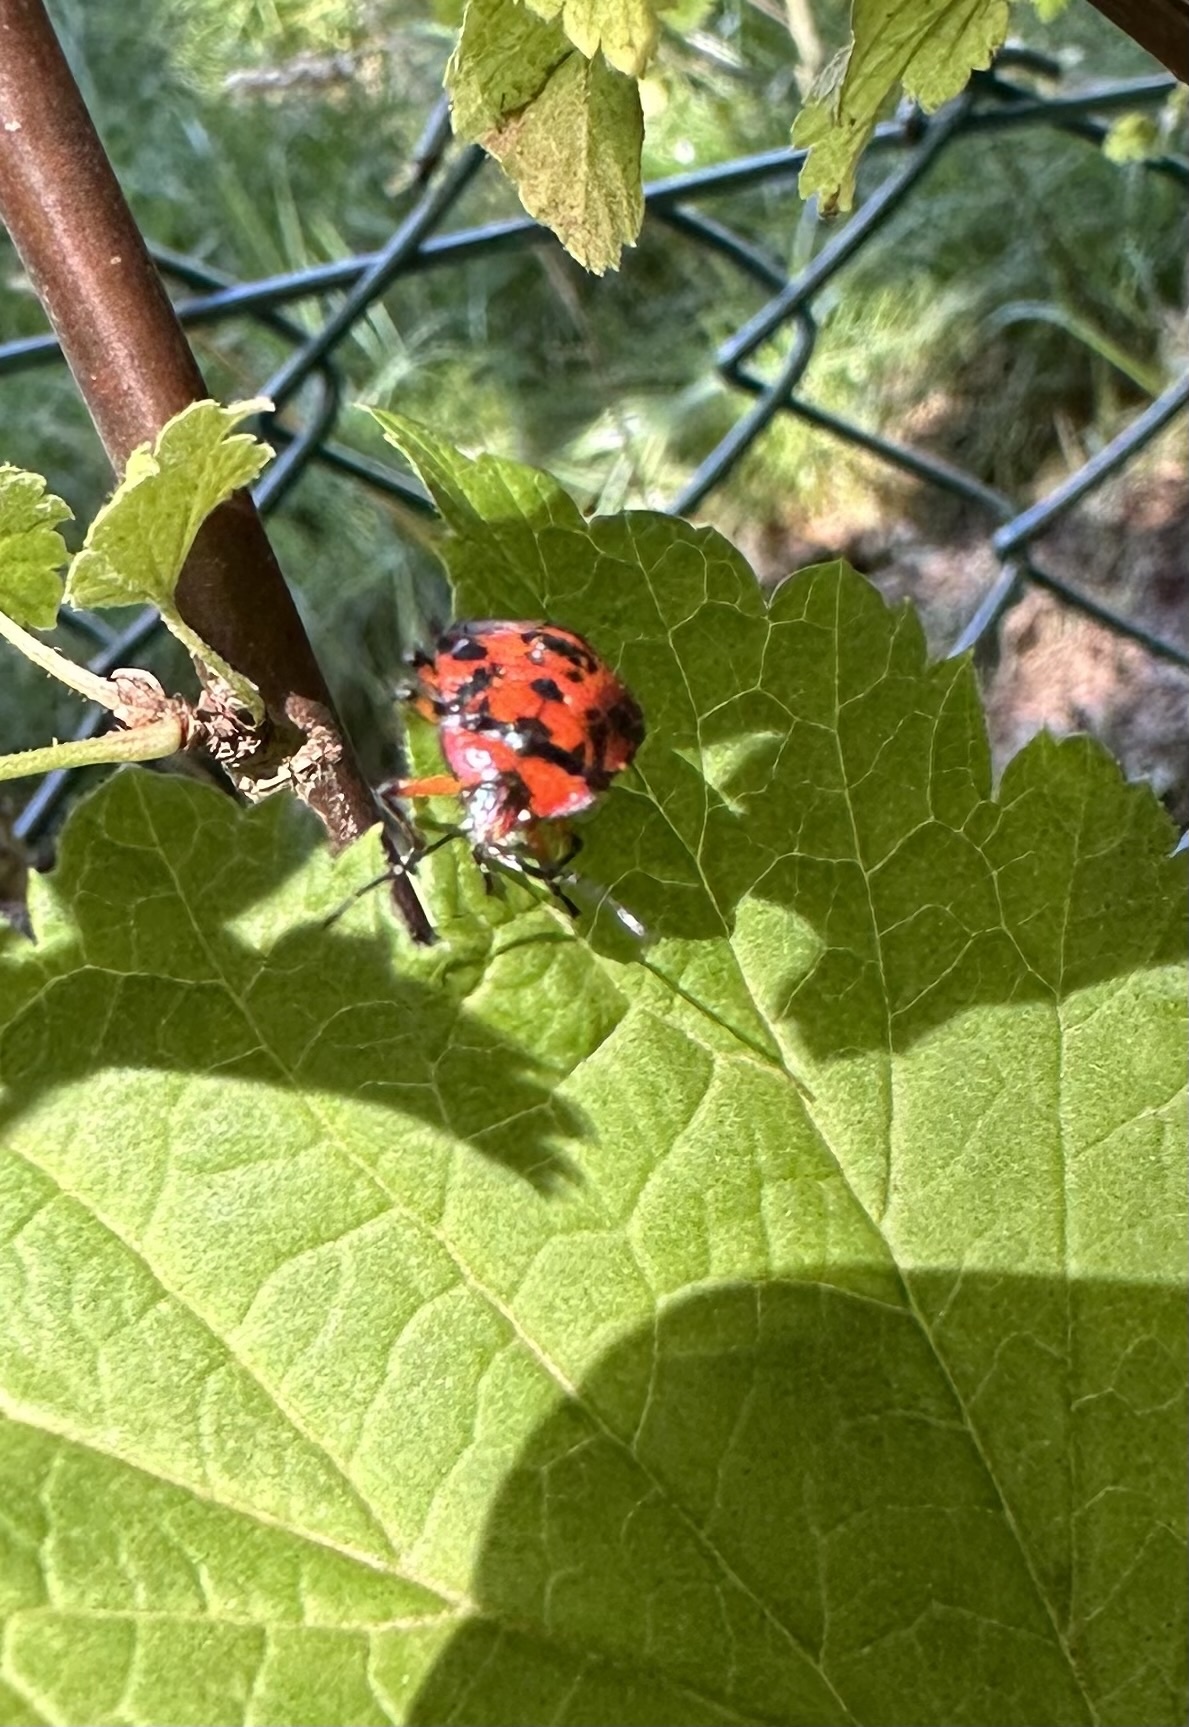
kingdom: Animalia
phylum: Arthropoda
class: Insecta
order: Hemiptera
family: Pentatomidae
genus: Brontocoris
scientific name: Brontocoris
